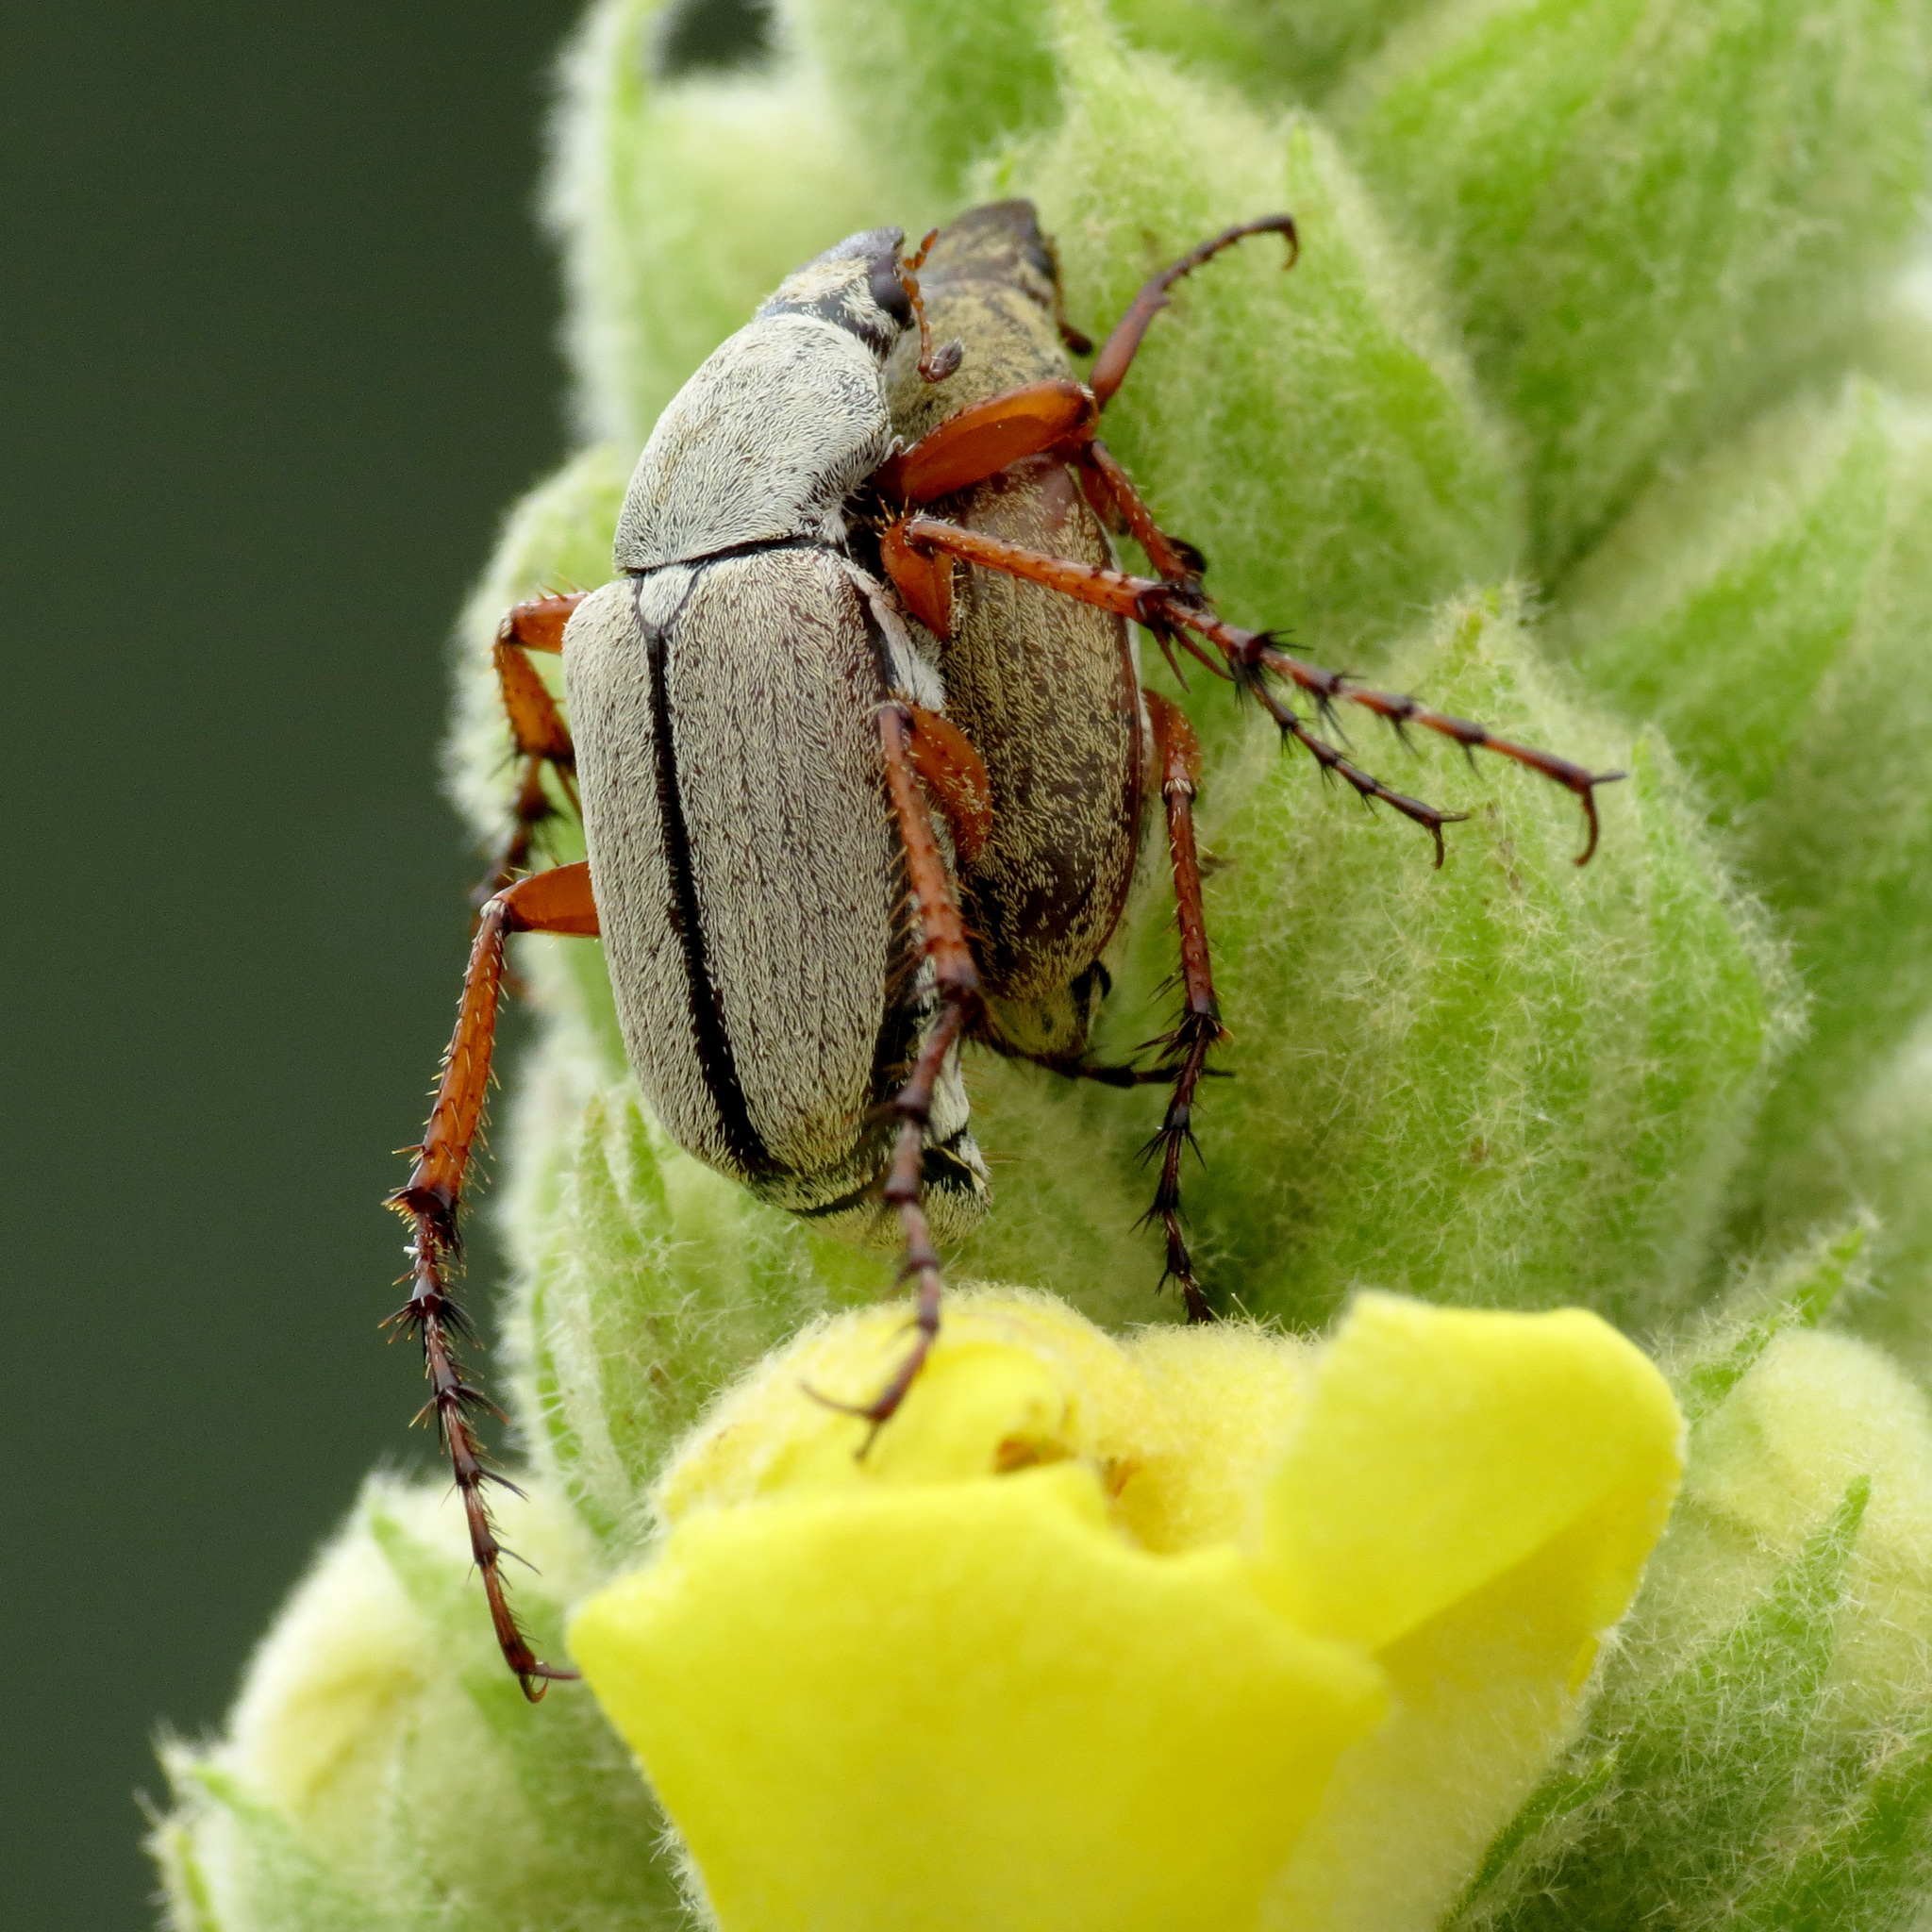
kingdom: Animalia
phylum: Arthropoda
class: Insecta
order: Coleoptera
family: Scarabaeidae
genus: Macrodactylus
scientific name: Macrodactylus uniformis
